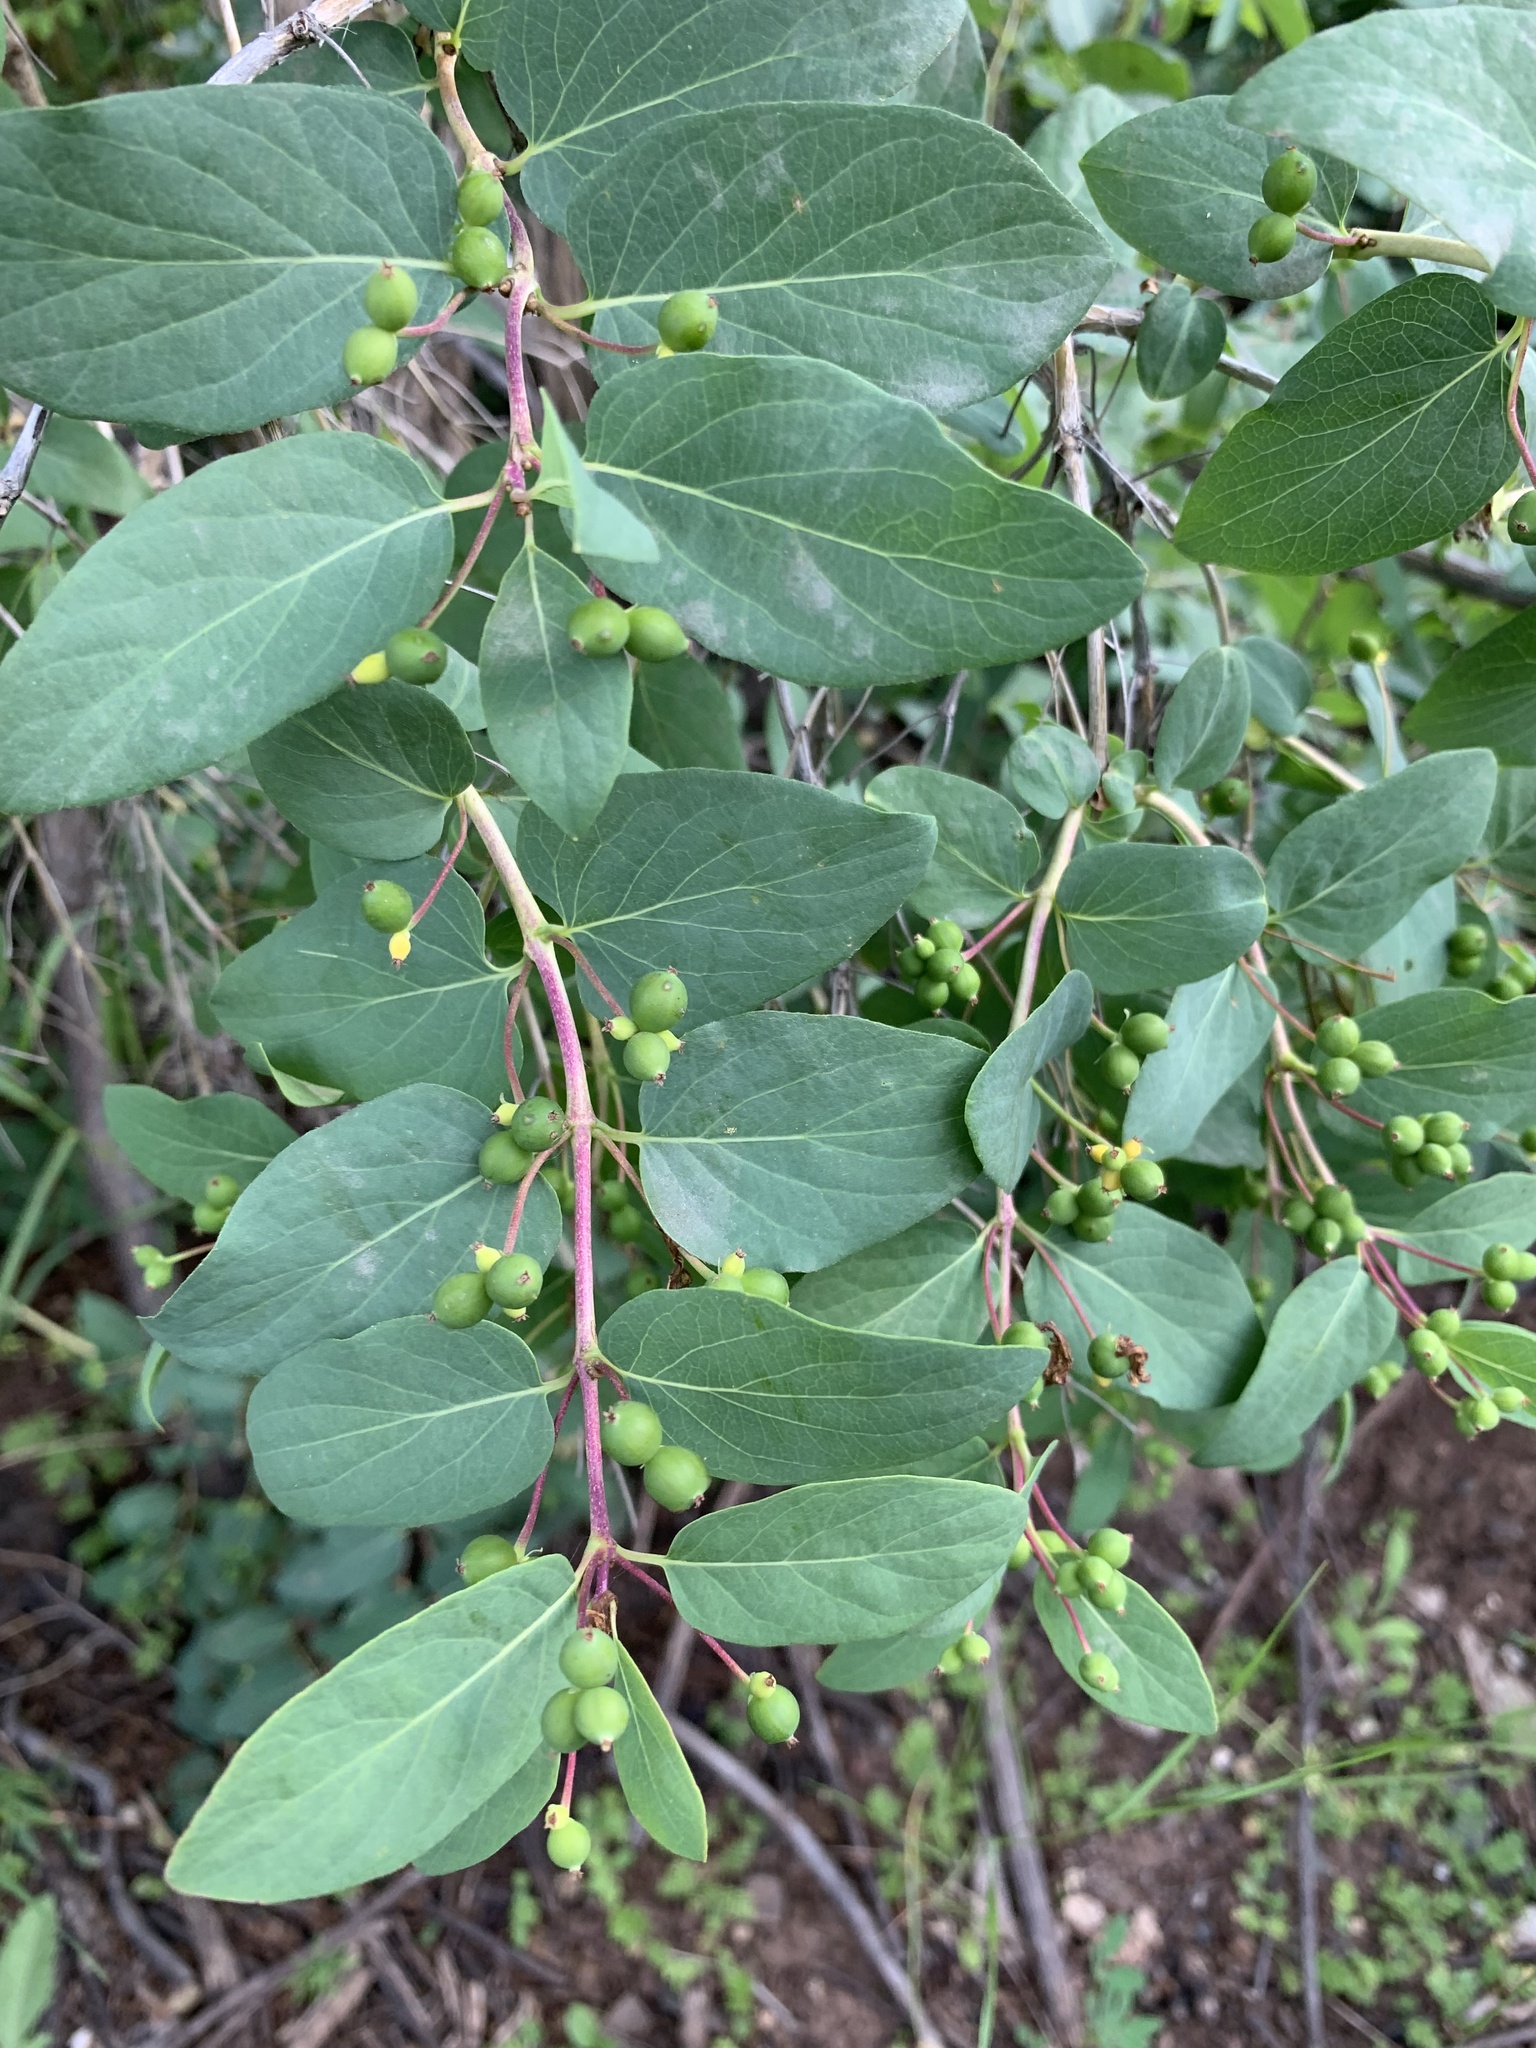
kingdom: Plantae
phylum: Tracheophyta
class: Magnoliopsida
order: Dipsacales
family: Caprifoliaceae
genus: Lonicera
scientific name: Lonicera tatarica
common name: Tatarian honeysuckle
